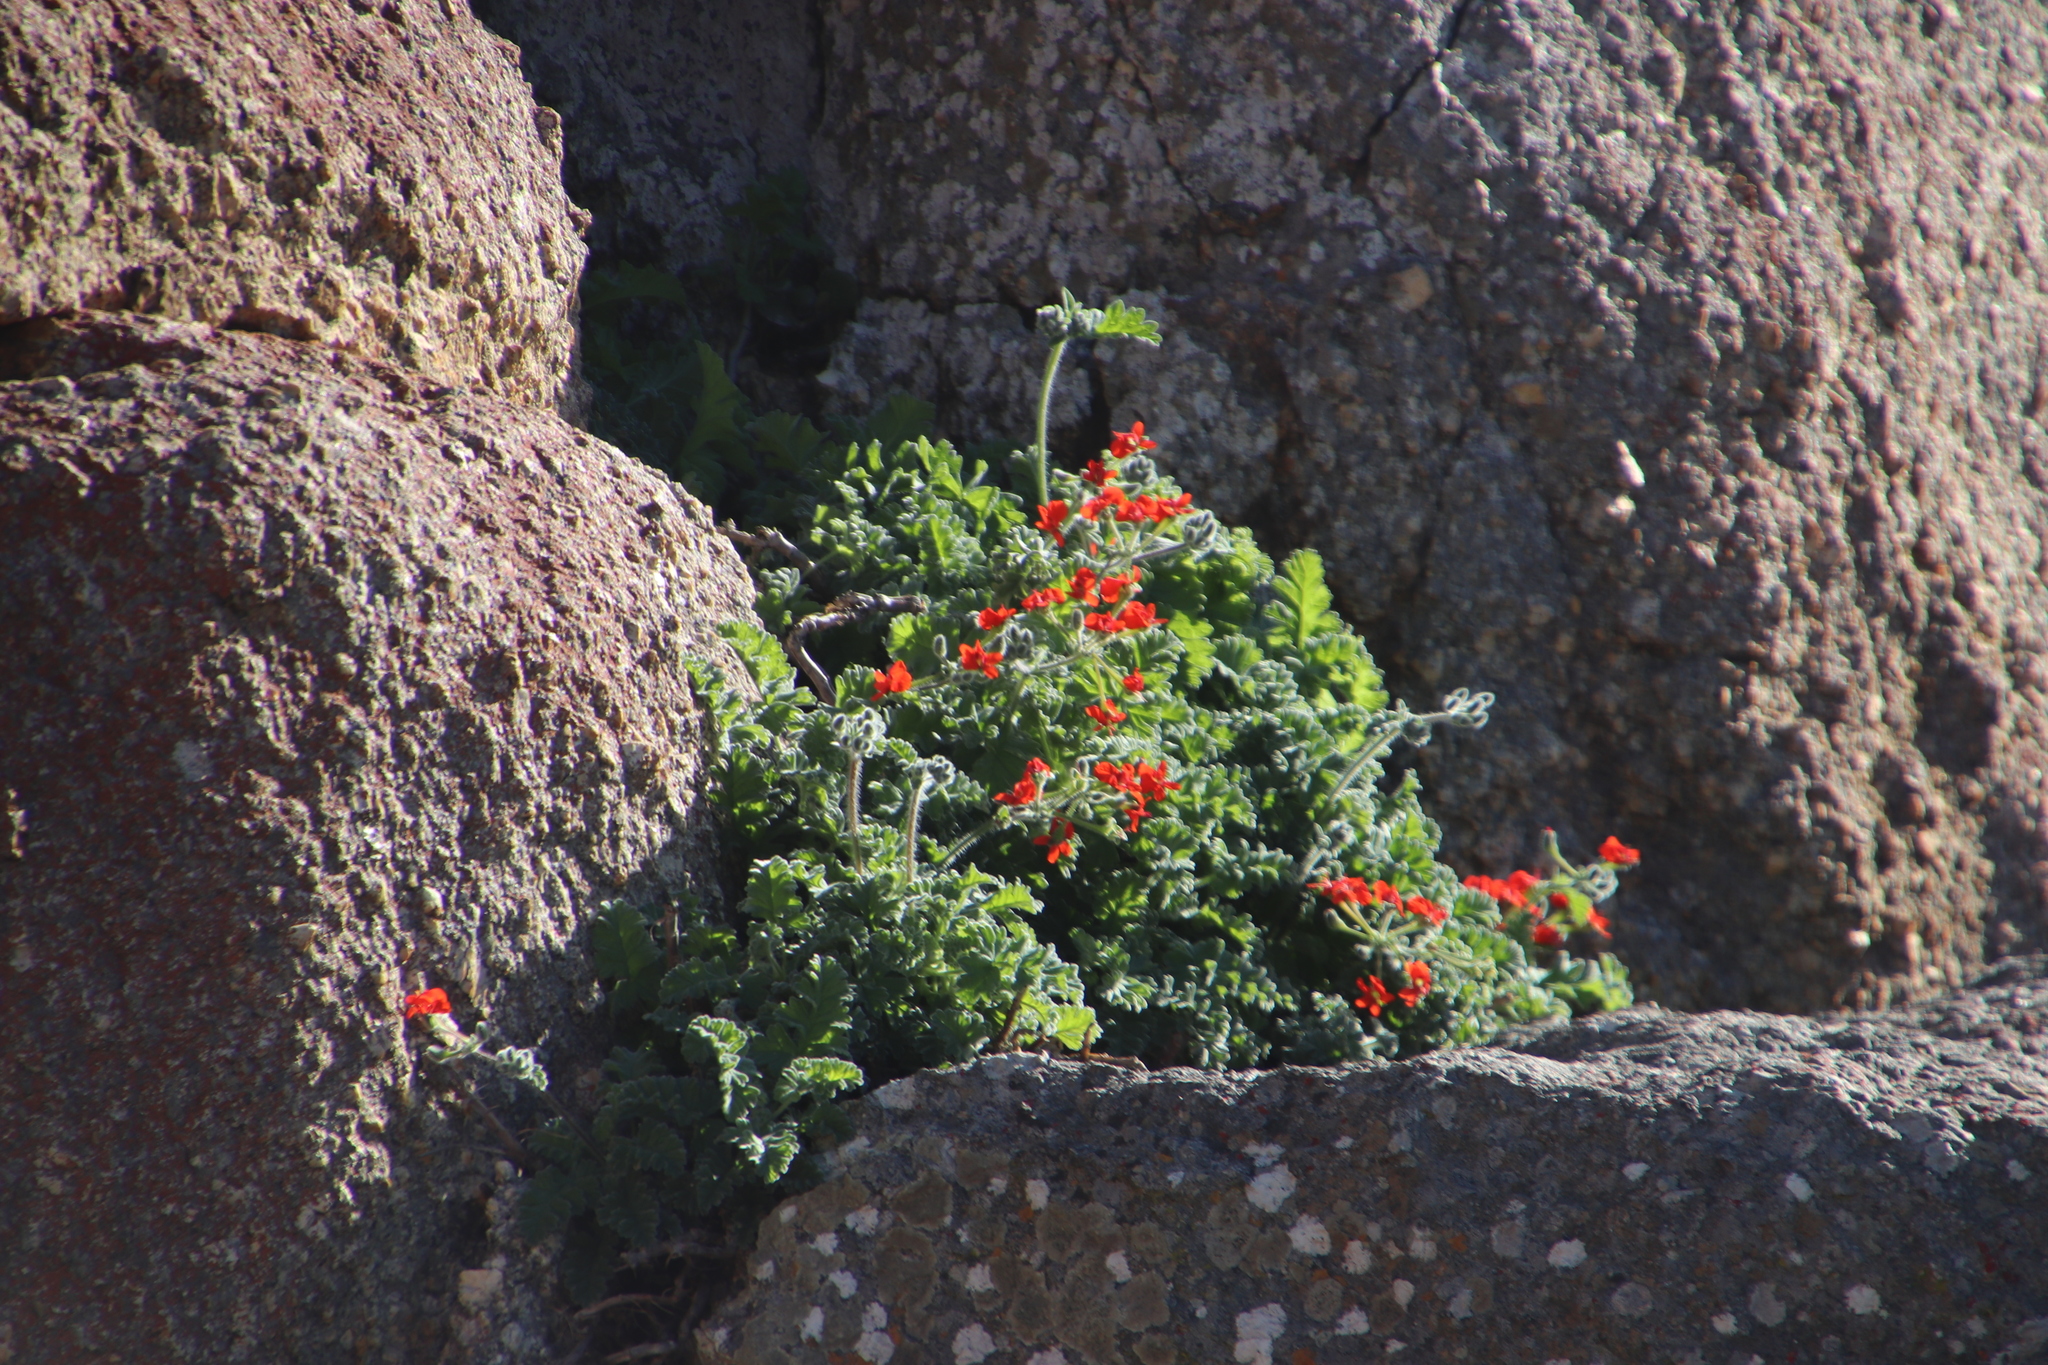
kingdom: Plantae
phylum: Tracheophyta
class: Magnoliopsida
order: Geraniales
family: Geraniaceae
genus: Pelargonium
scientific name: Pelargonium fulgidum
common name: Celandine-leaf pelargonium
